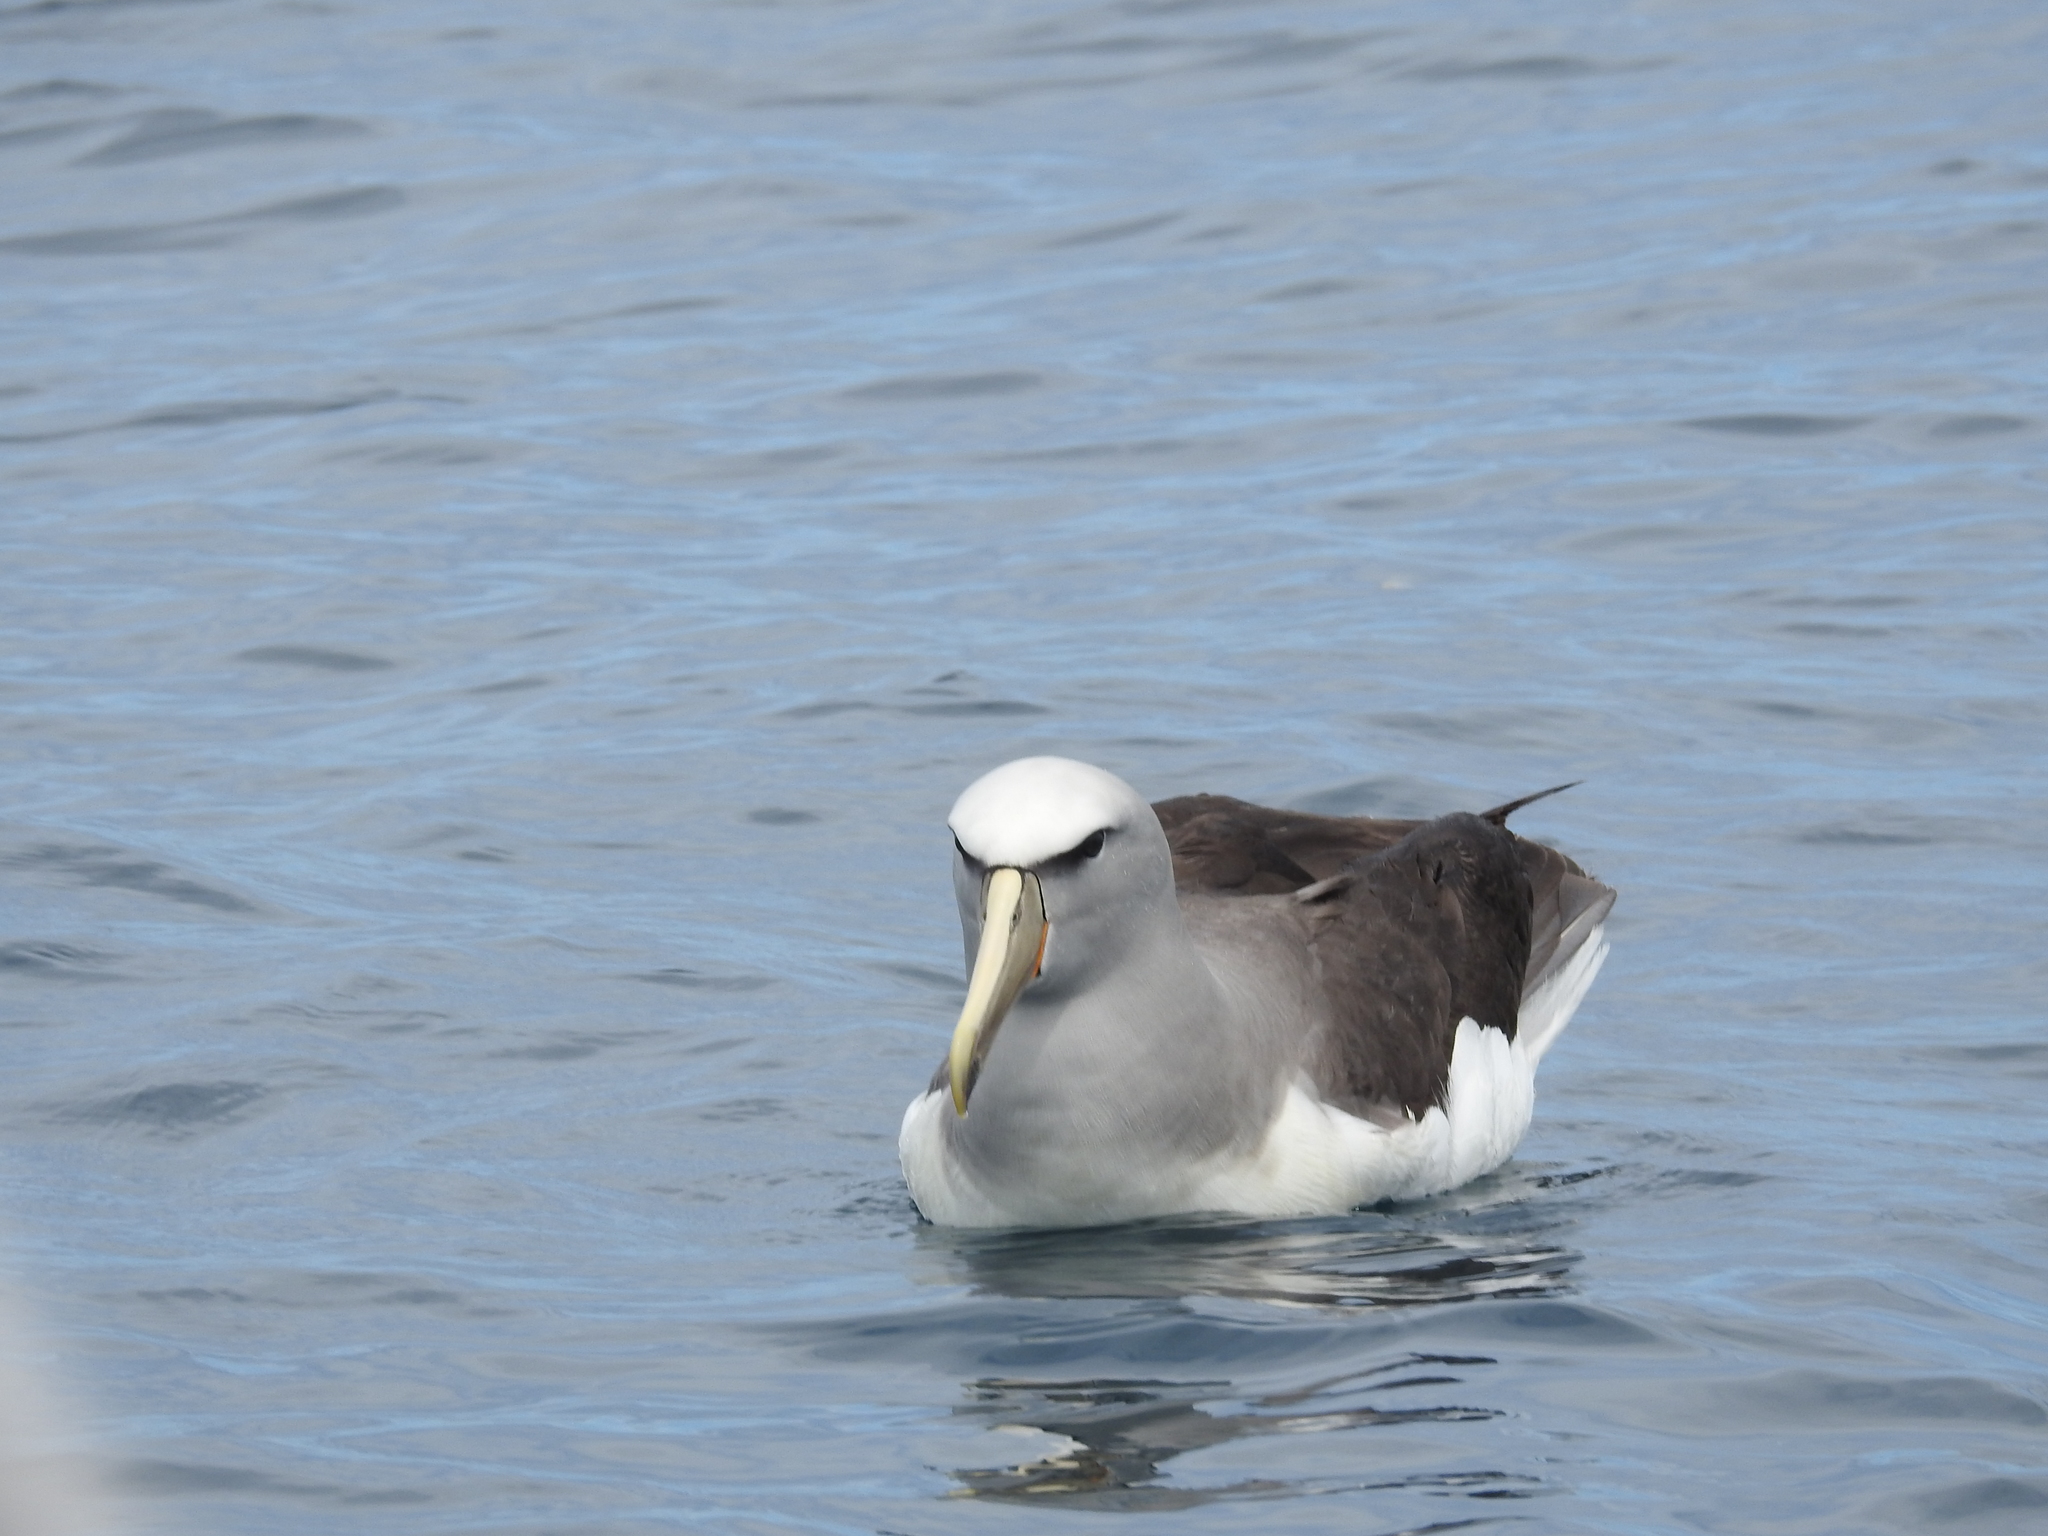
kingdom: Animalia
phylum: Chordata
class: Aves
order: Procellariiformes
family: Diomedeidae
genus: Thalassarche
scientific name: Thalassarche salvini
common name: Salvin's albatross
